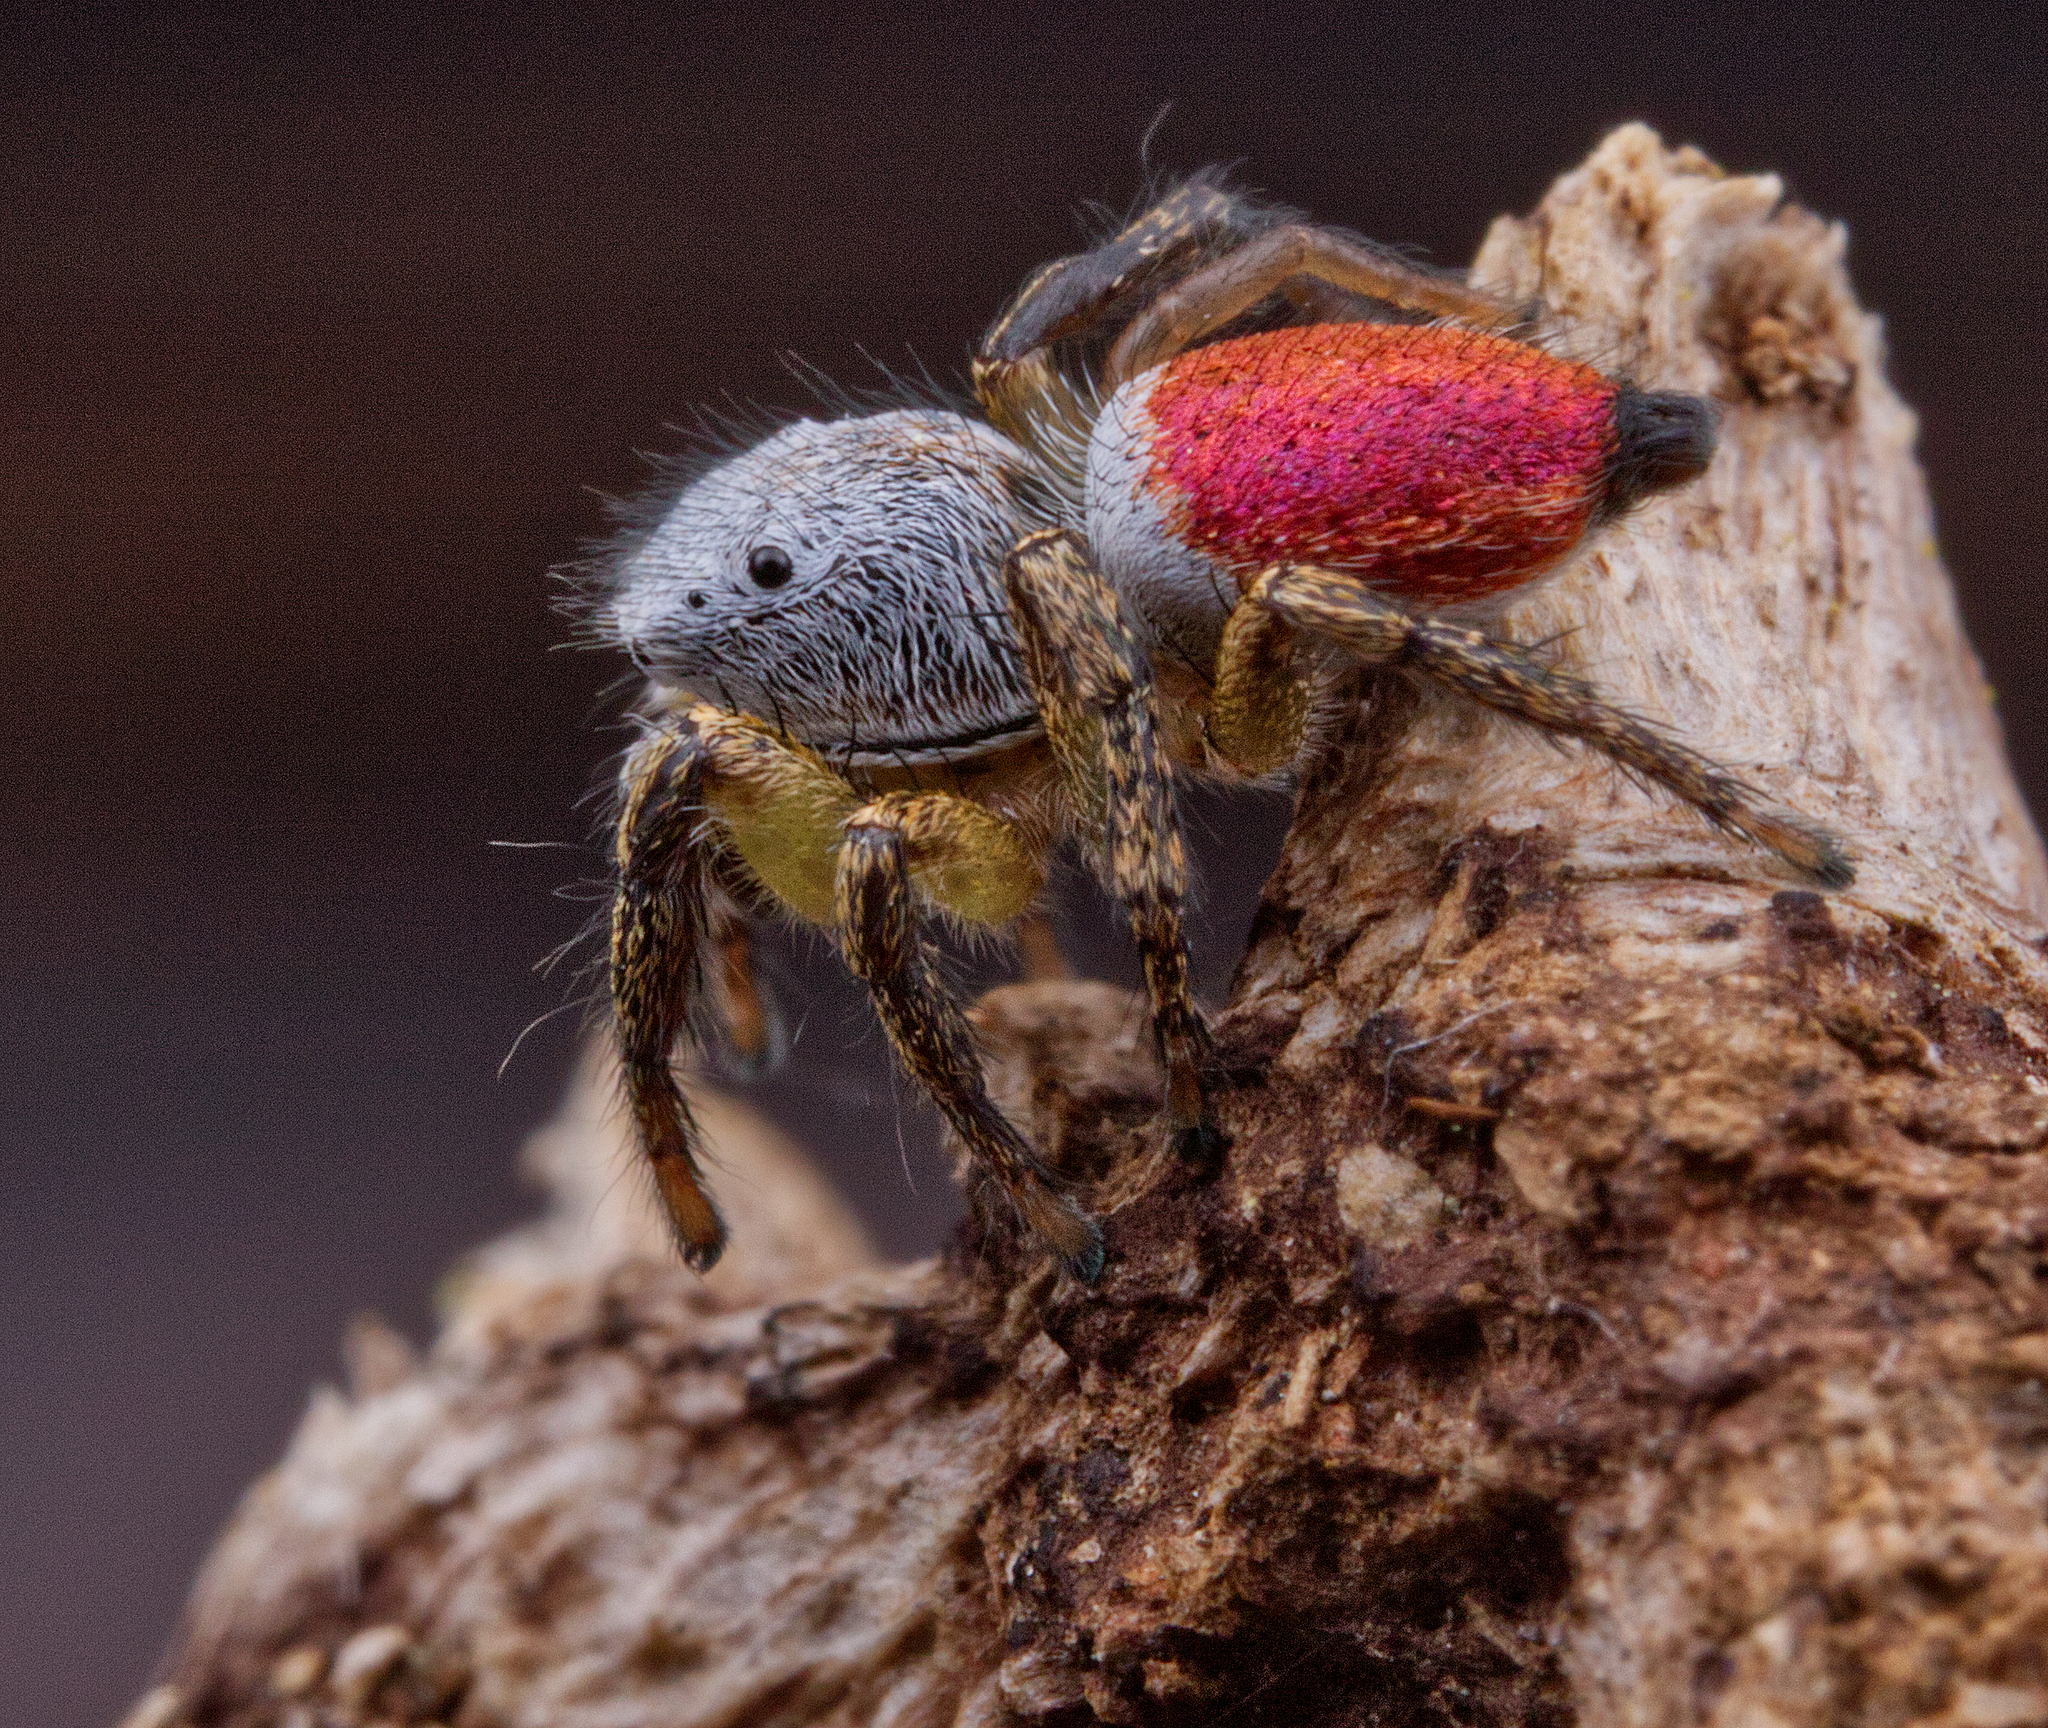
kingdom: Animalia
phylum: Arthropoda
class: Arachnida
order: Araneae
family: Salticidae
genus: Habronattus
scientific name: Habronattus decorus
